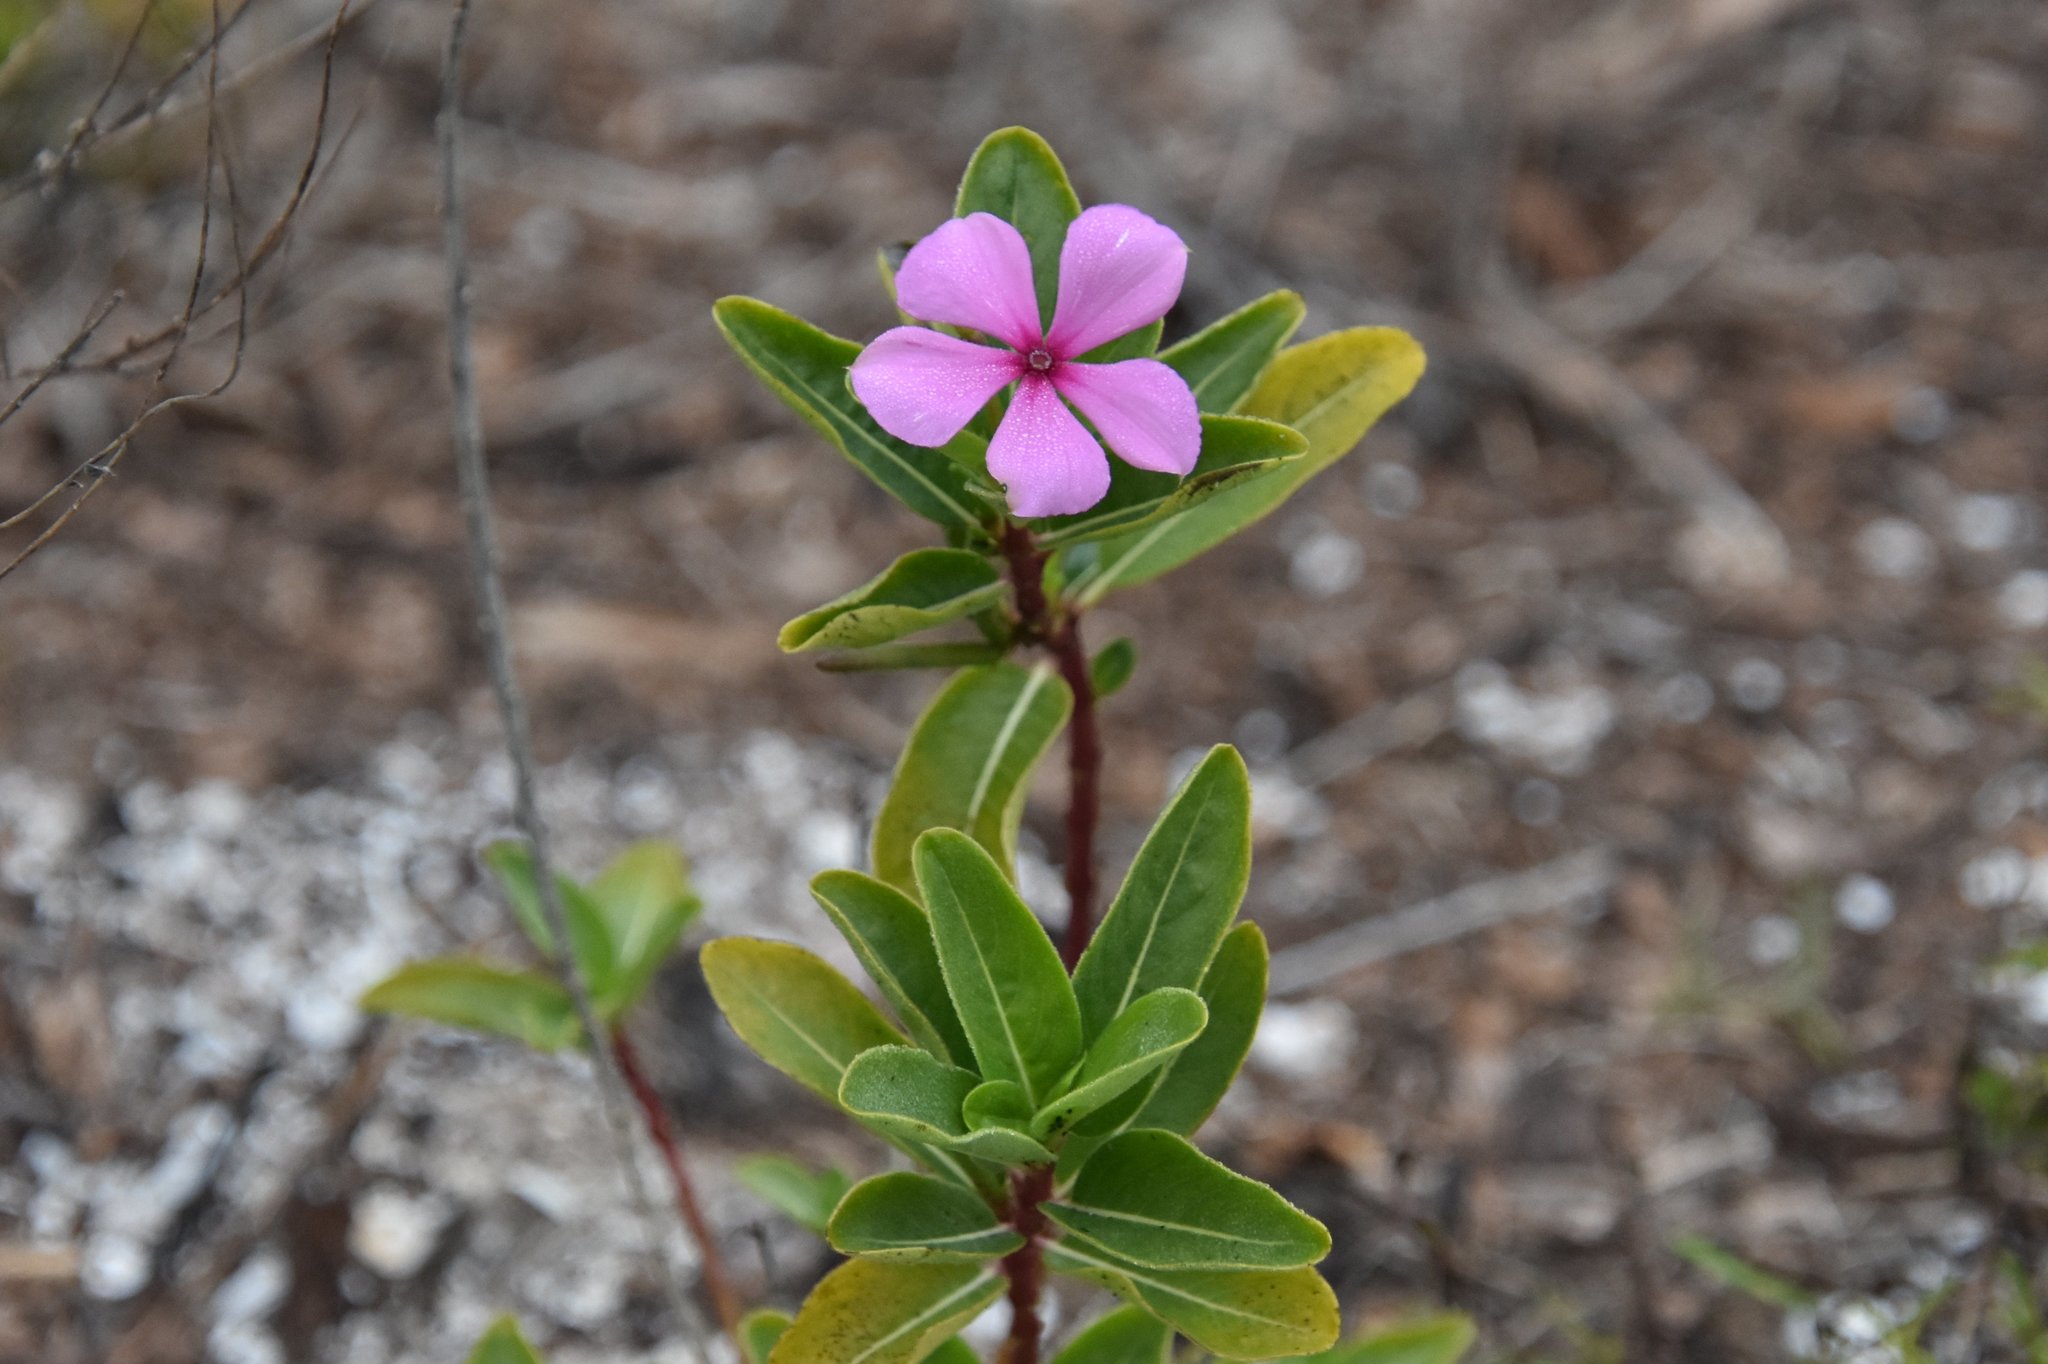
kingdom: Plantae
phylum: Tracheophyta
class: Magnoliopsida
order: Gentianales
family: Apocynaceae
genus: Catharanthus
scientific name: Catharanthus roseus
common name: Madagascar periwinkle
